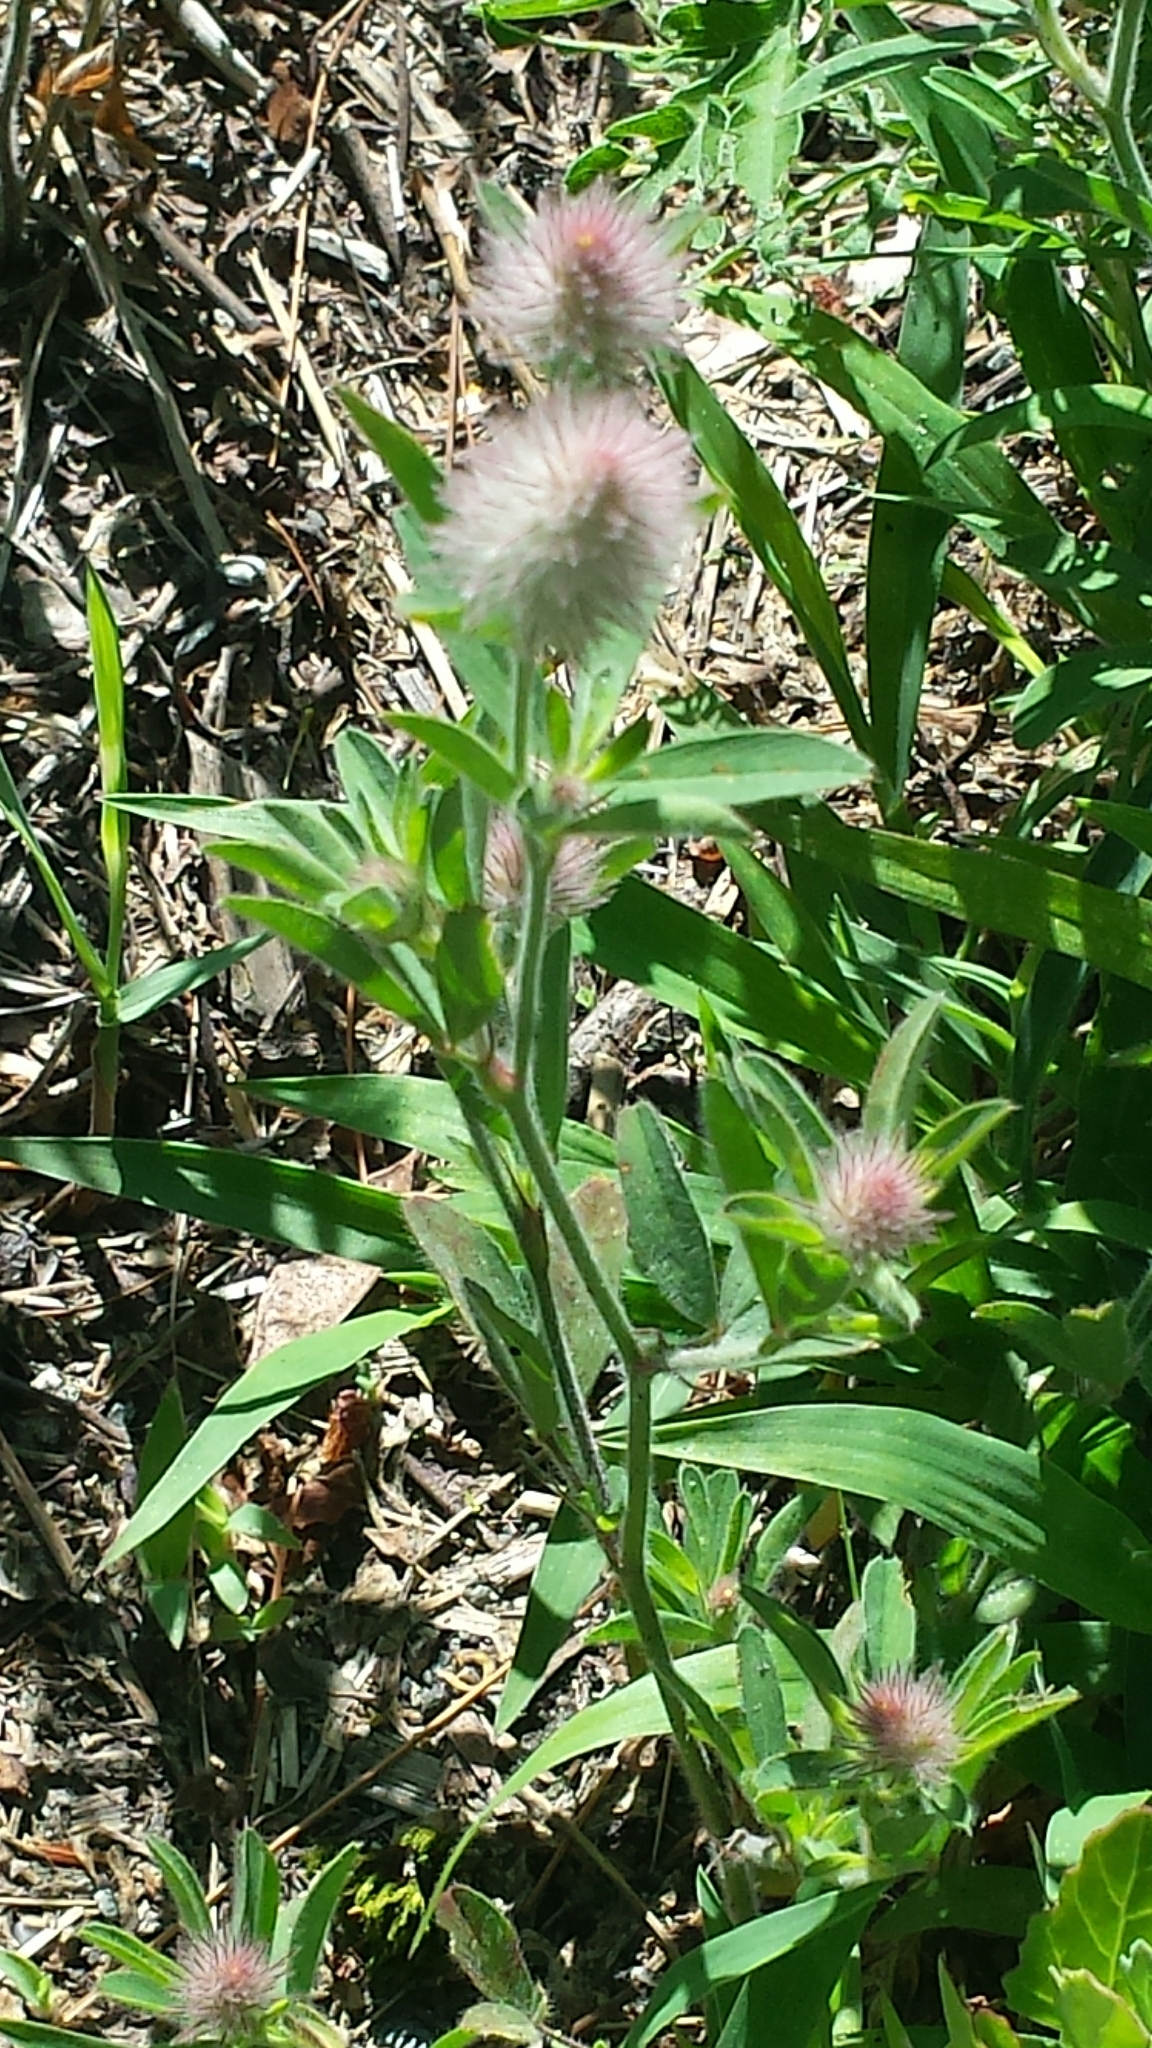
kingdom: Plantae
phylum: Tracheophyta
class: Magnoliopsida
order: Fabales
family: Fabaceae
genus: Trifolium
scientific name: Trifolium arvense
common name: Hare's-foot clover
